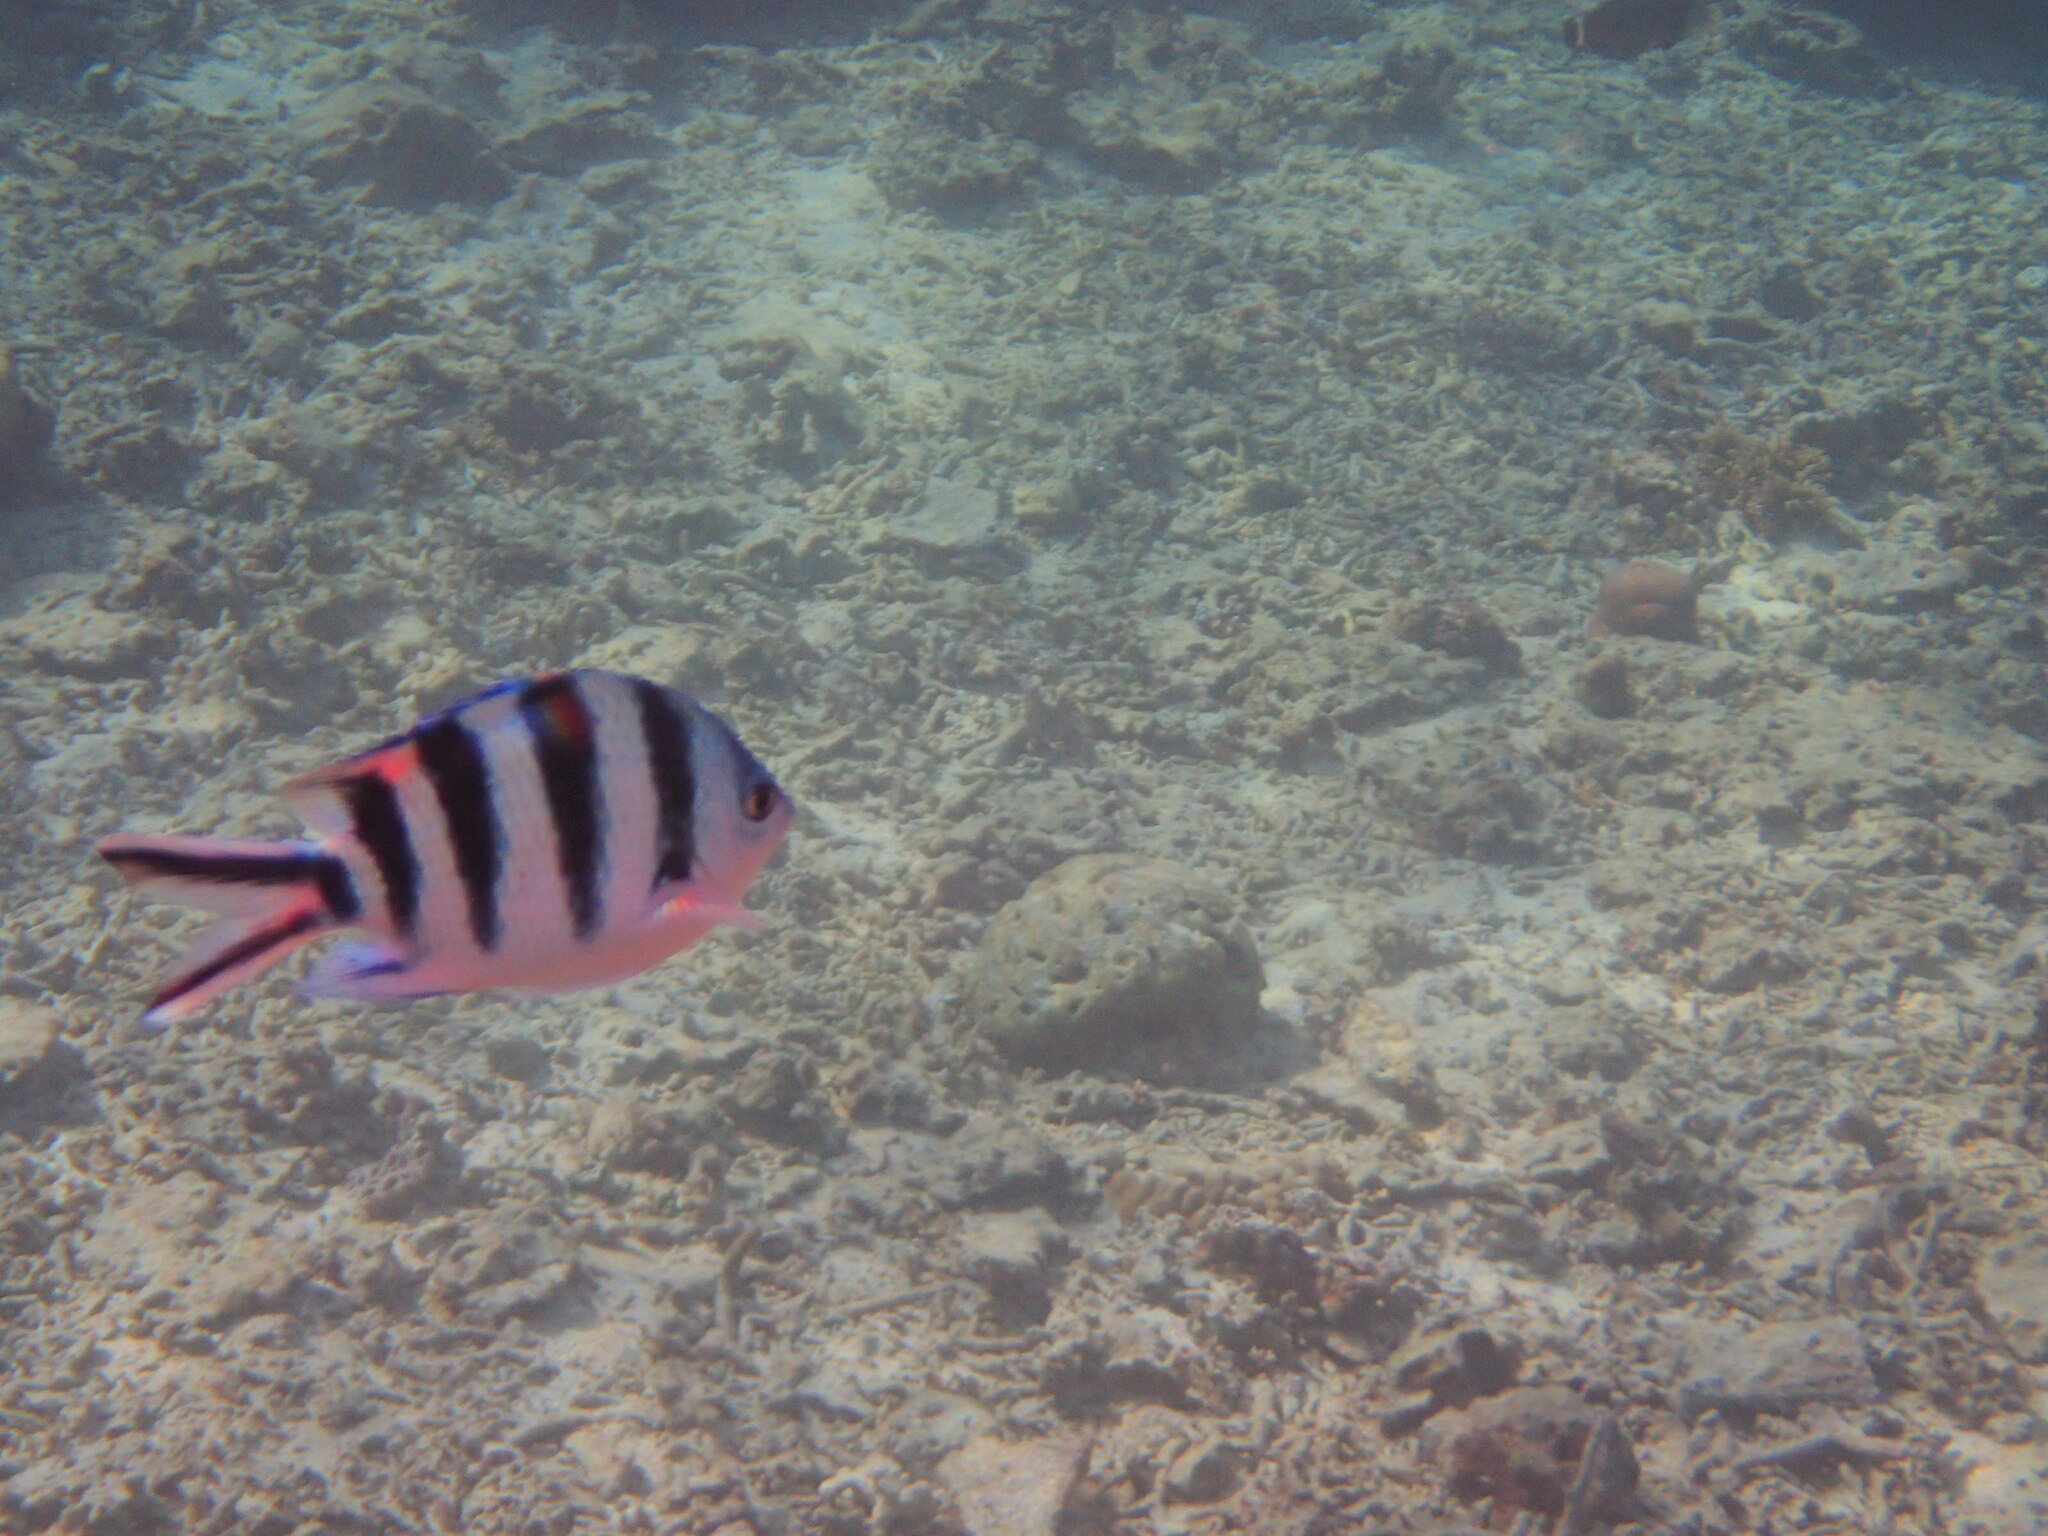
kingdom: Animalia
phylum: Chordata
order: Perciformes
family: Pomacentridae
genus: Abudefduf
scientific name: Abudefduf sexfasciatus
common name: Scissortail sergeant
